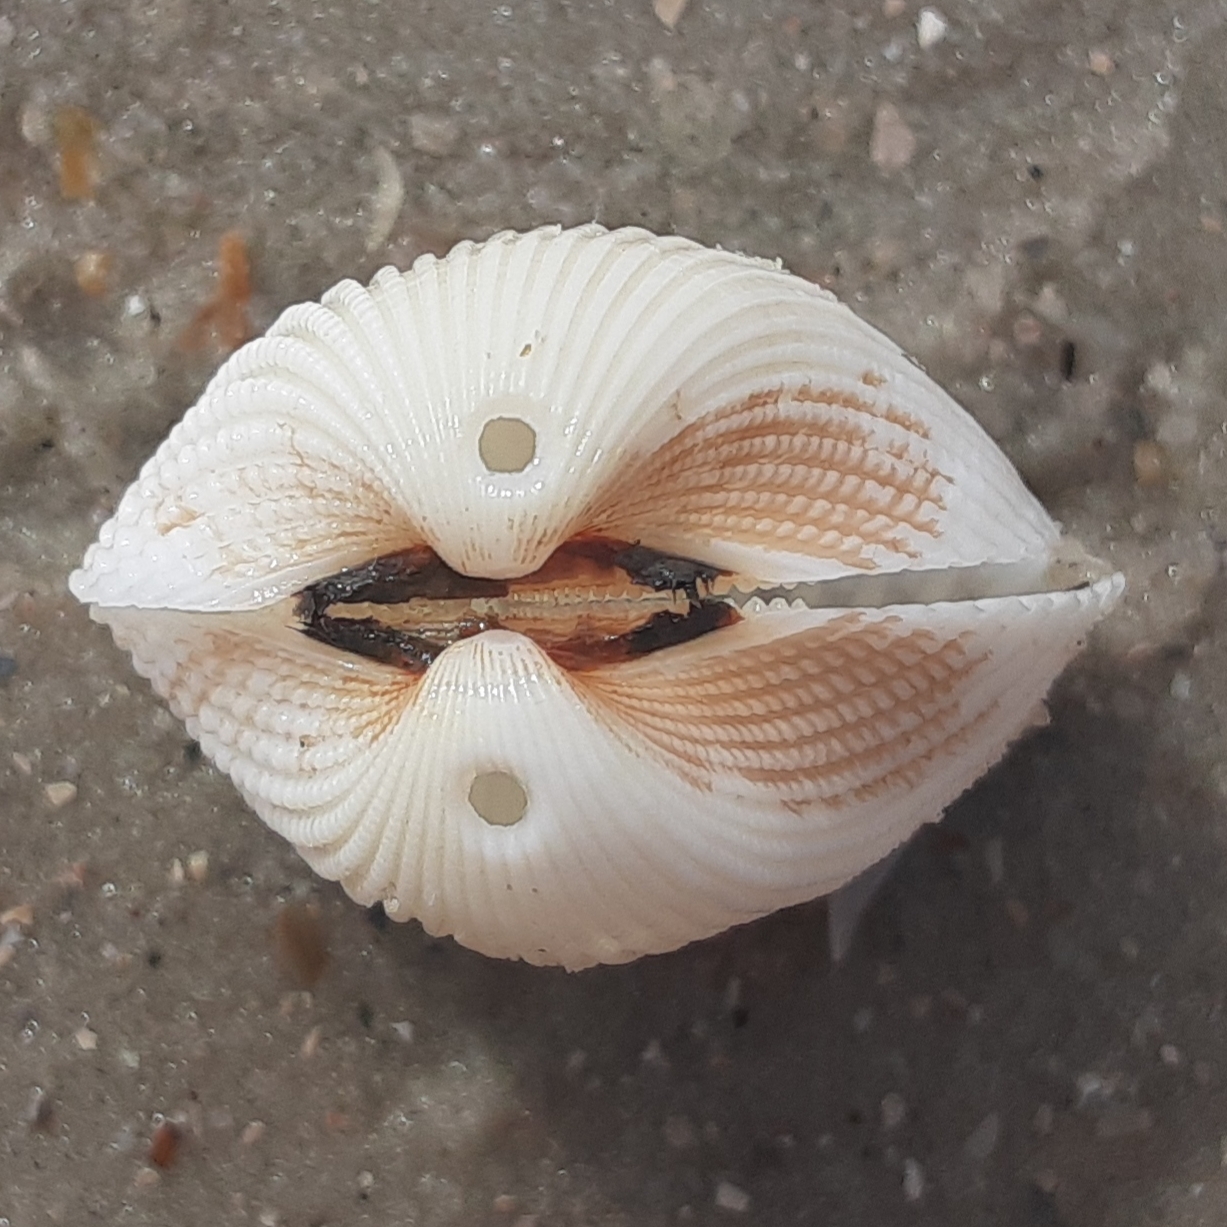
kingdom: Animalia
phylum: Mollusca
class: Bivalvia
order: Arcida
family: Arcidae
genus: Anadara
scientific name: Anadara brasiliana
